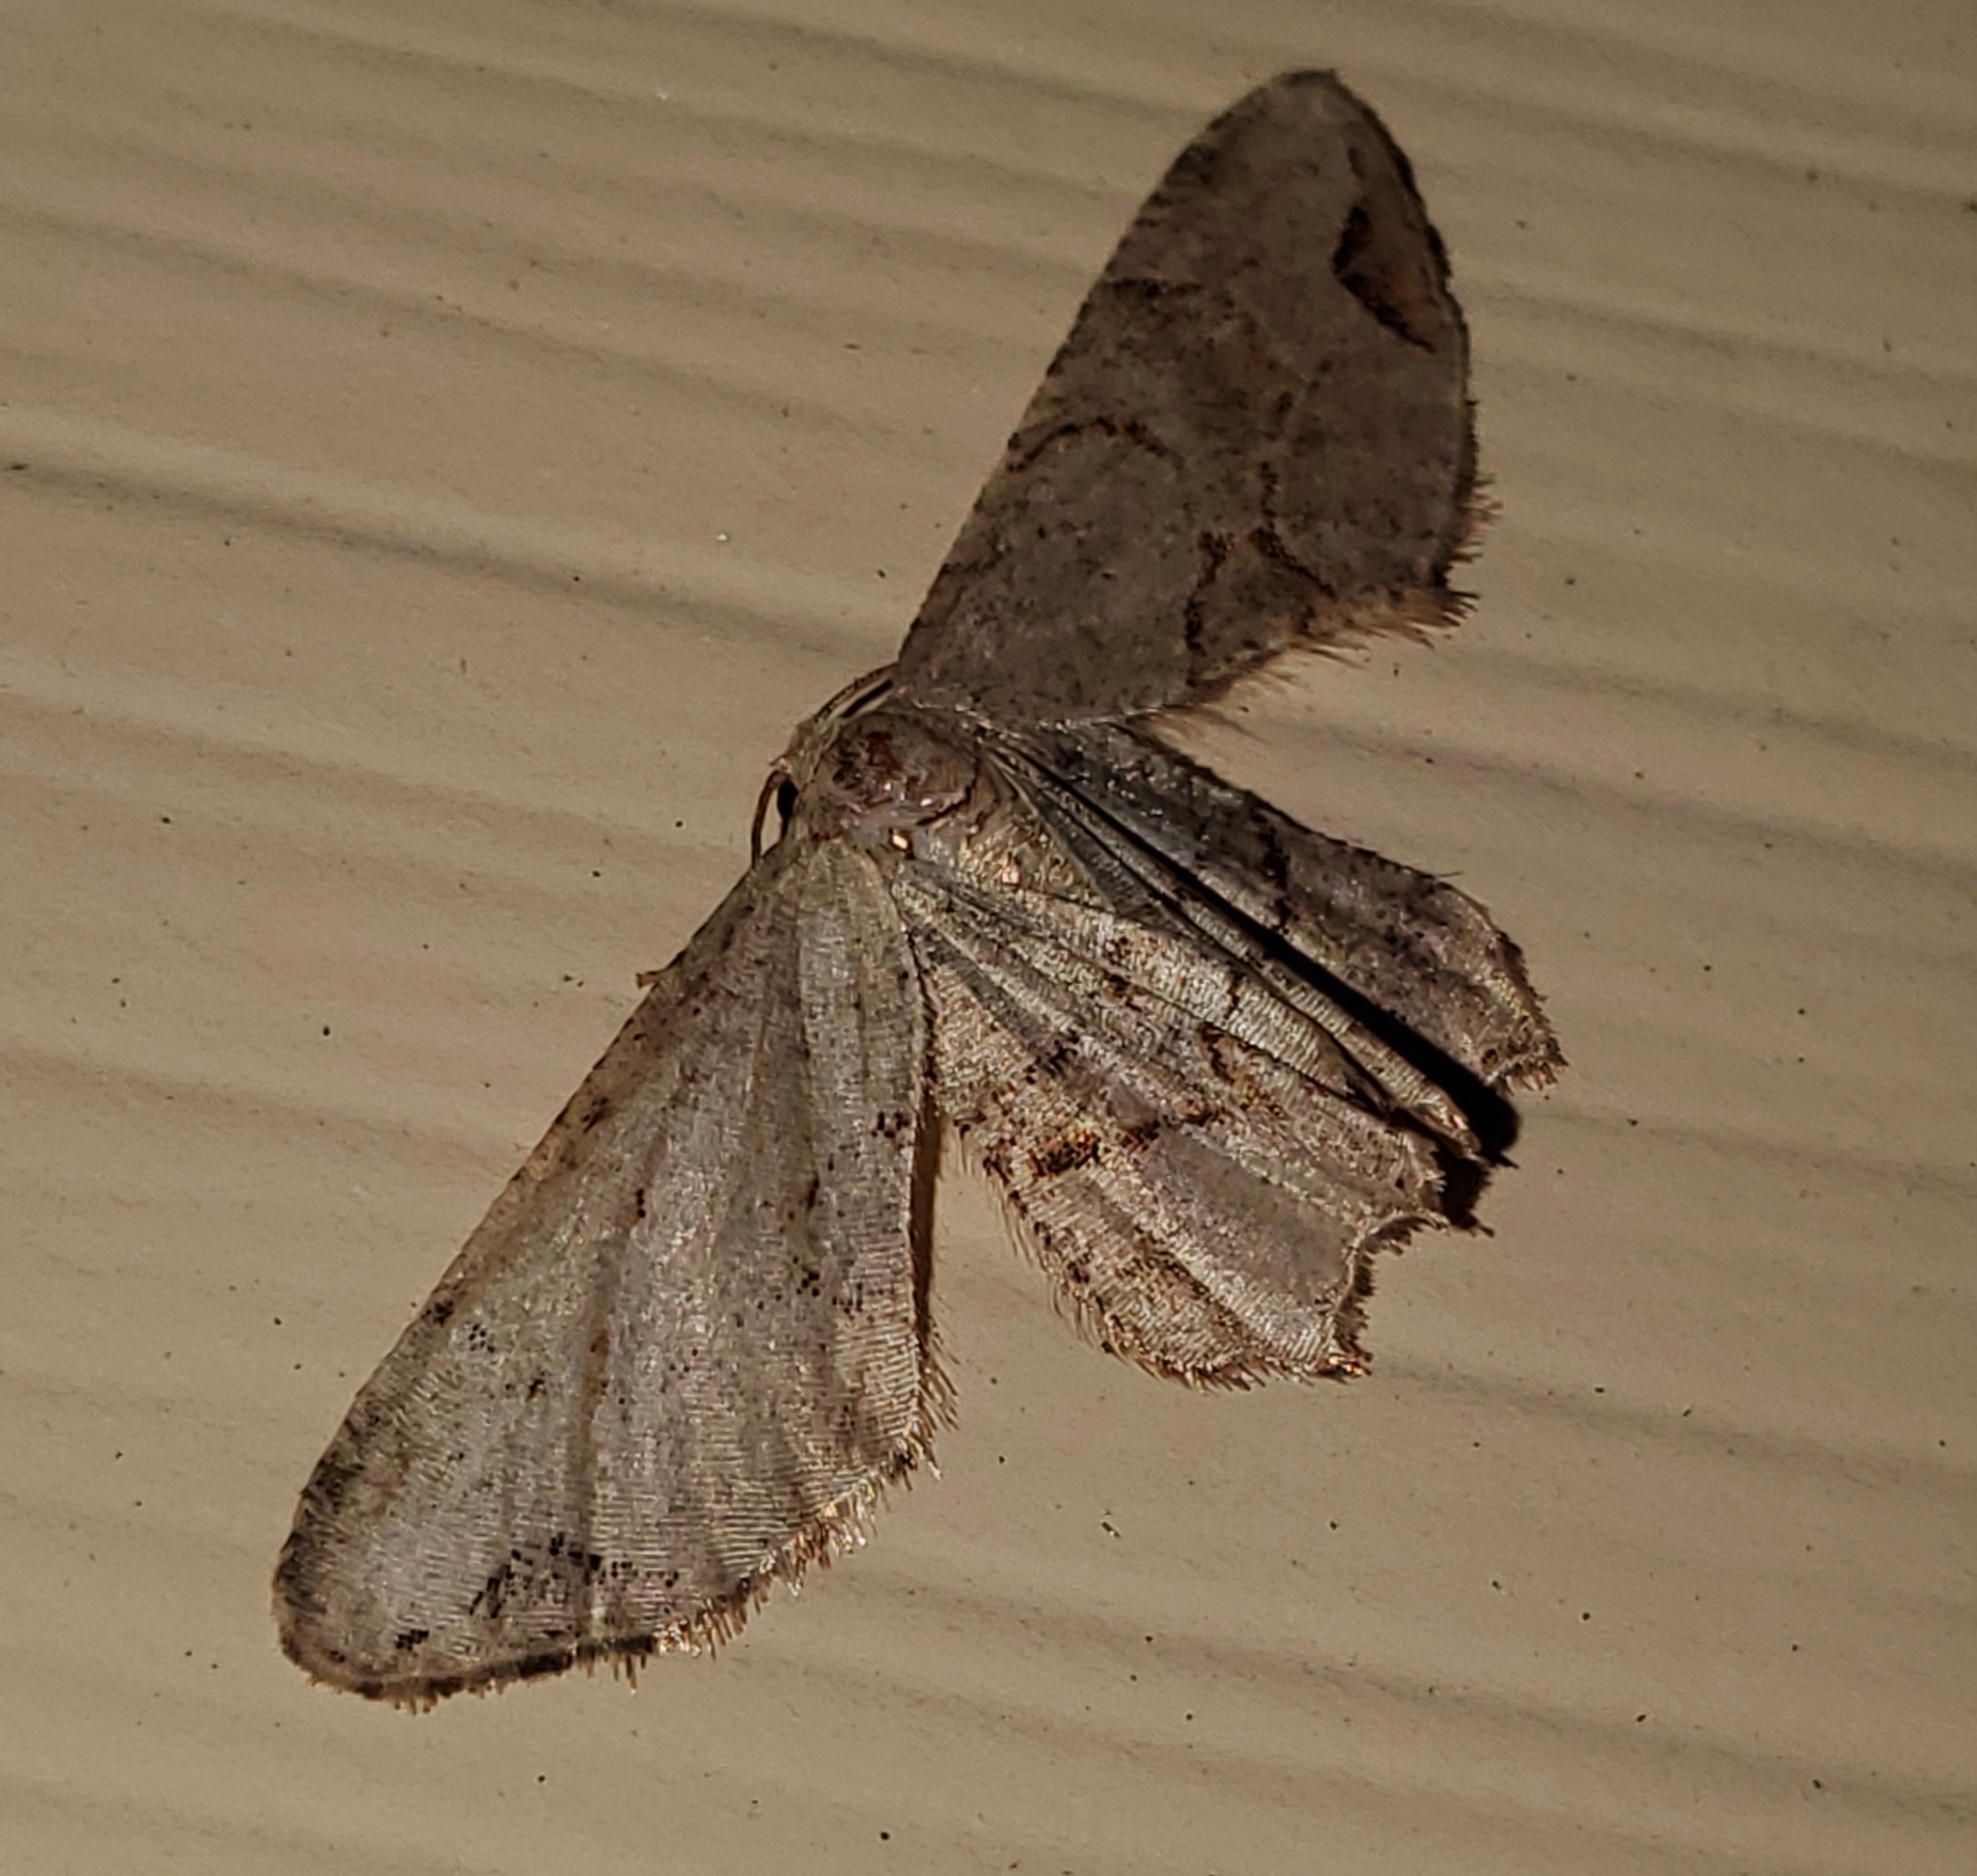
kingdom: Animalia
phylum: Arthropoda
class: Insecta
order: Lepidoptera
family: Uraniidae
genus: Epiplema
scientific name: Epiplema Callizzia amorata
